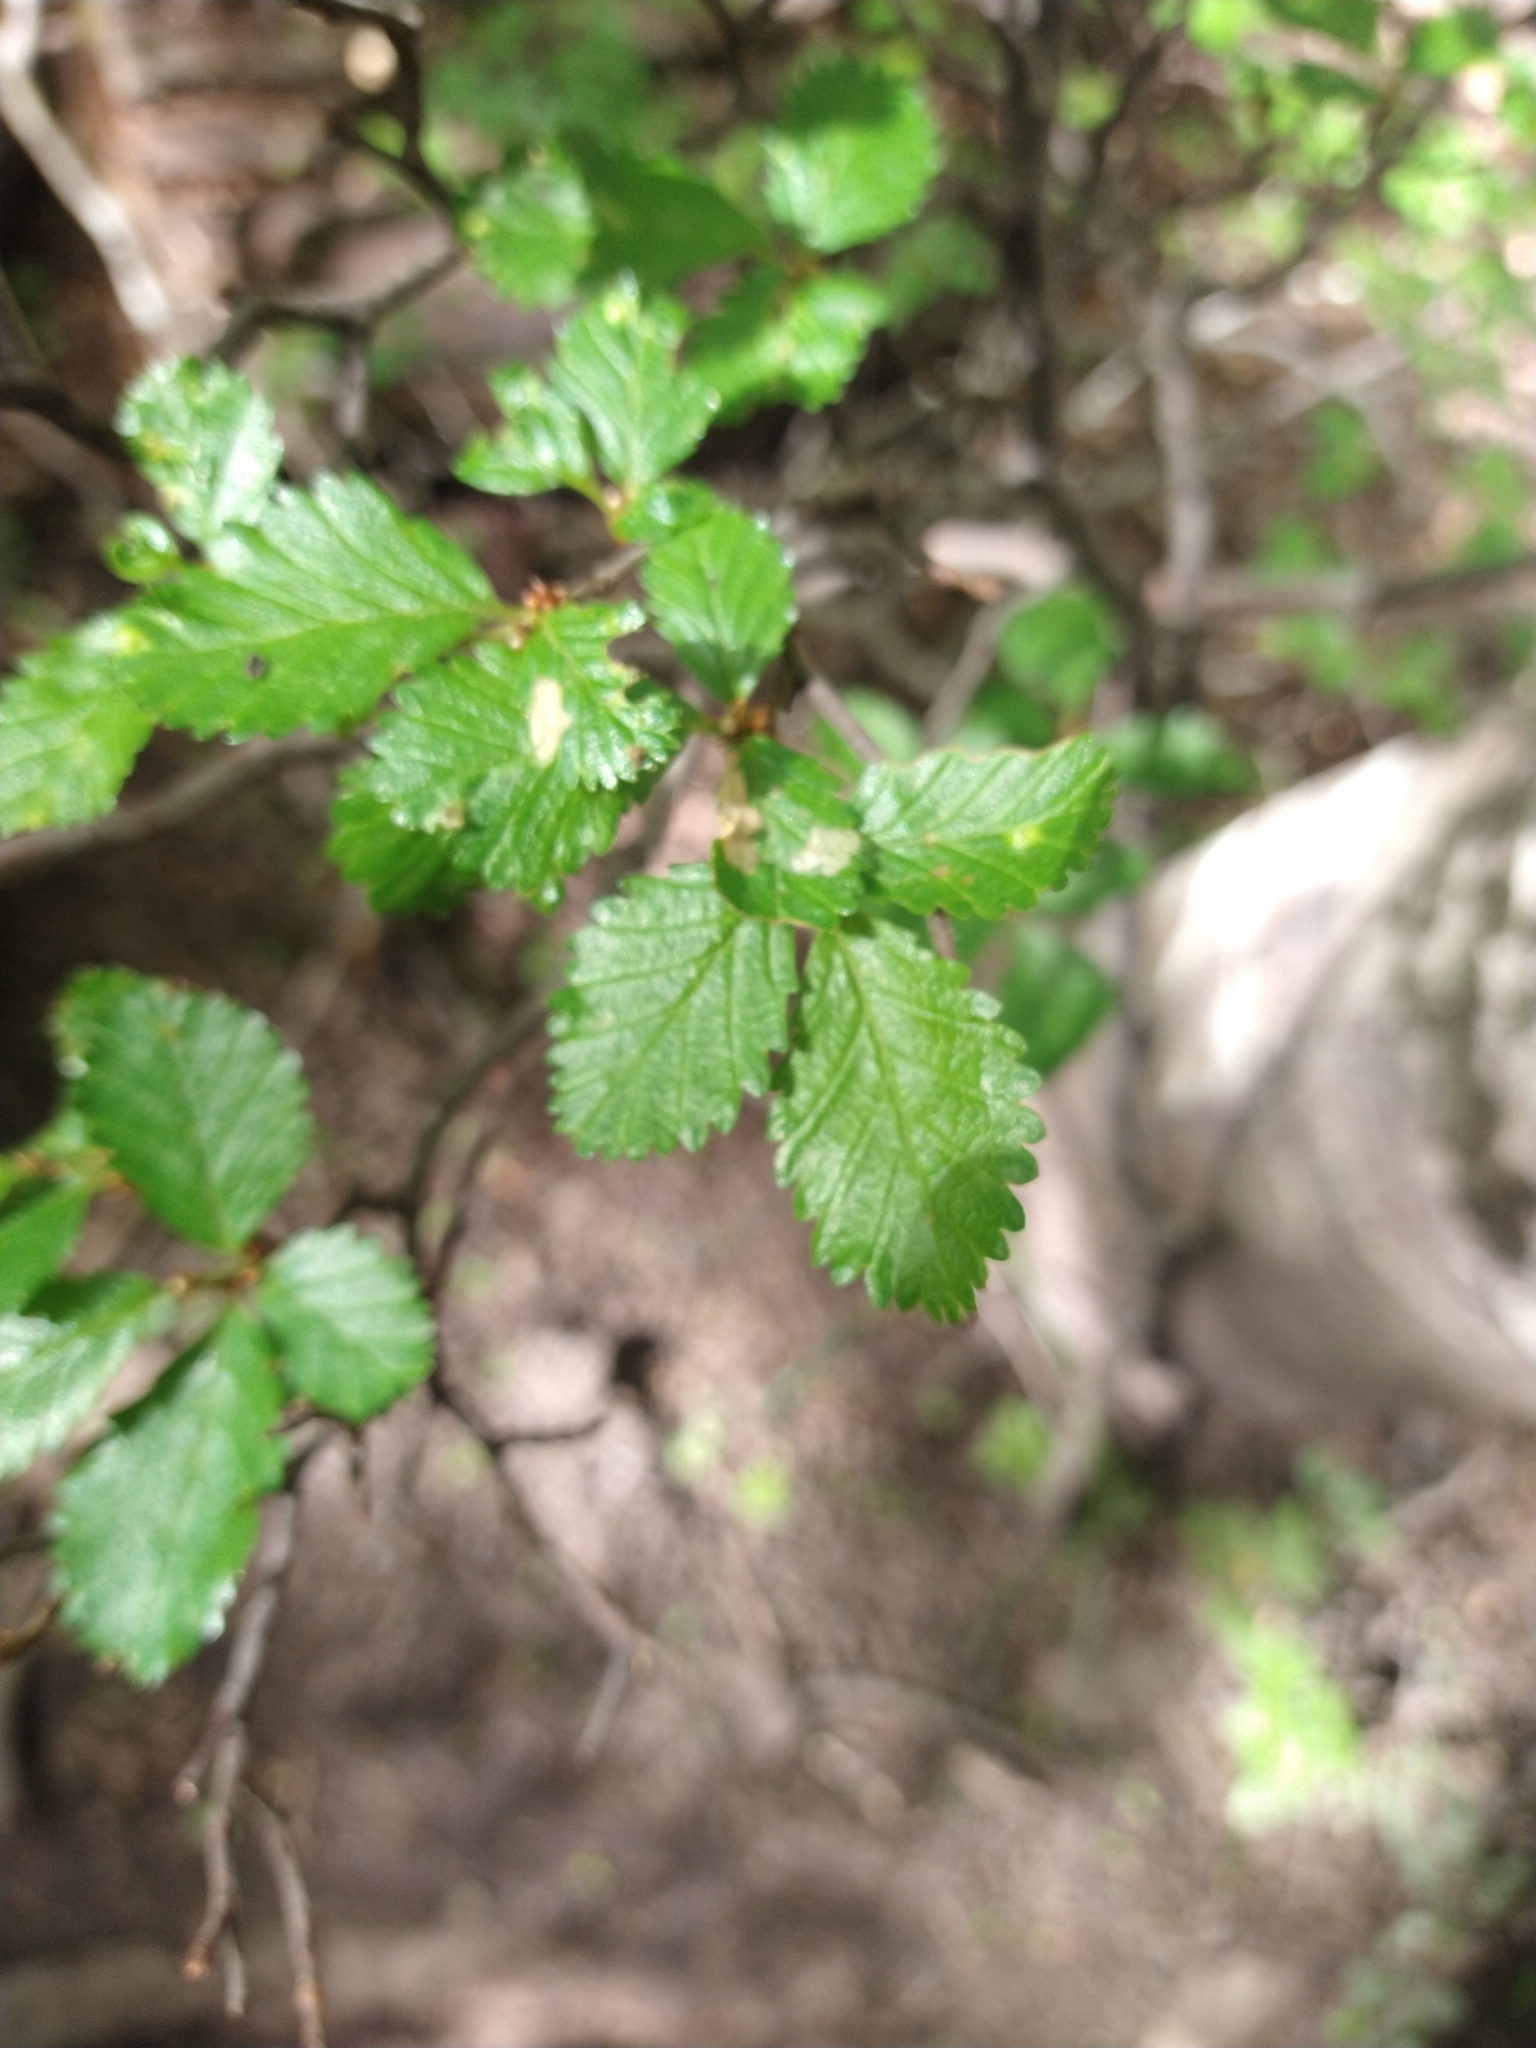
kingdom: Plantae
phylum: Tracheophyta
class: Magnoliopsida
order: Fagales
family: Nothofagaceae
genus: Nothofagus
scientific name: Nothofagus pumilio
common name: Lenga beech
